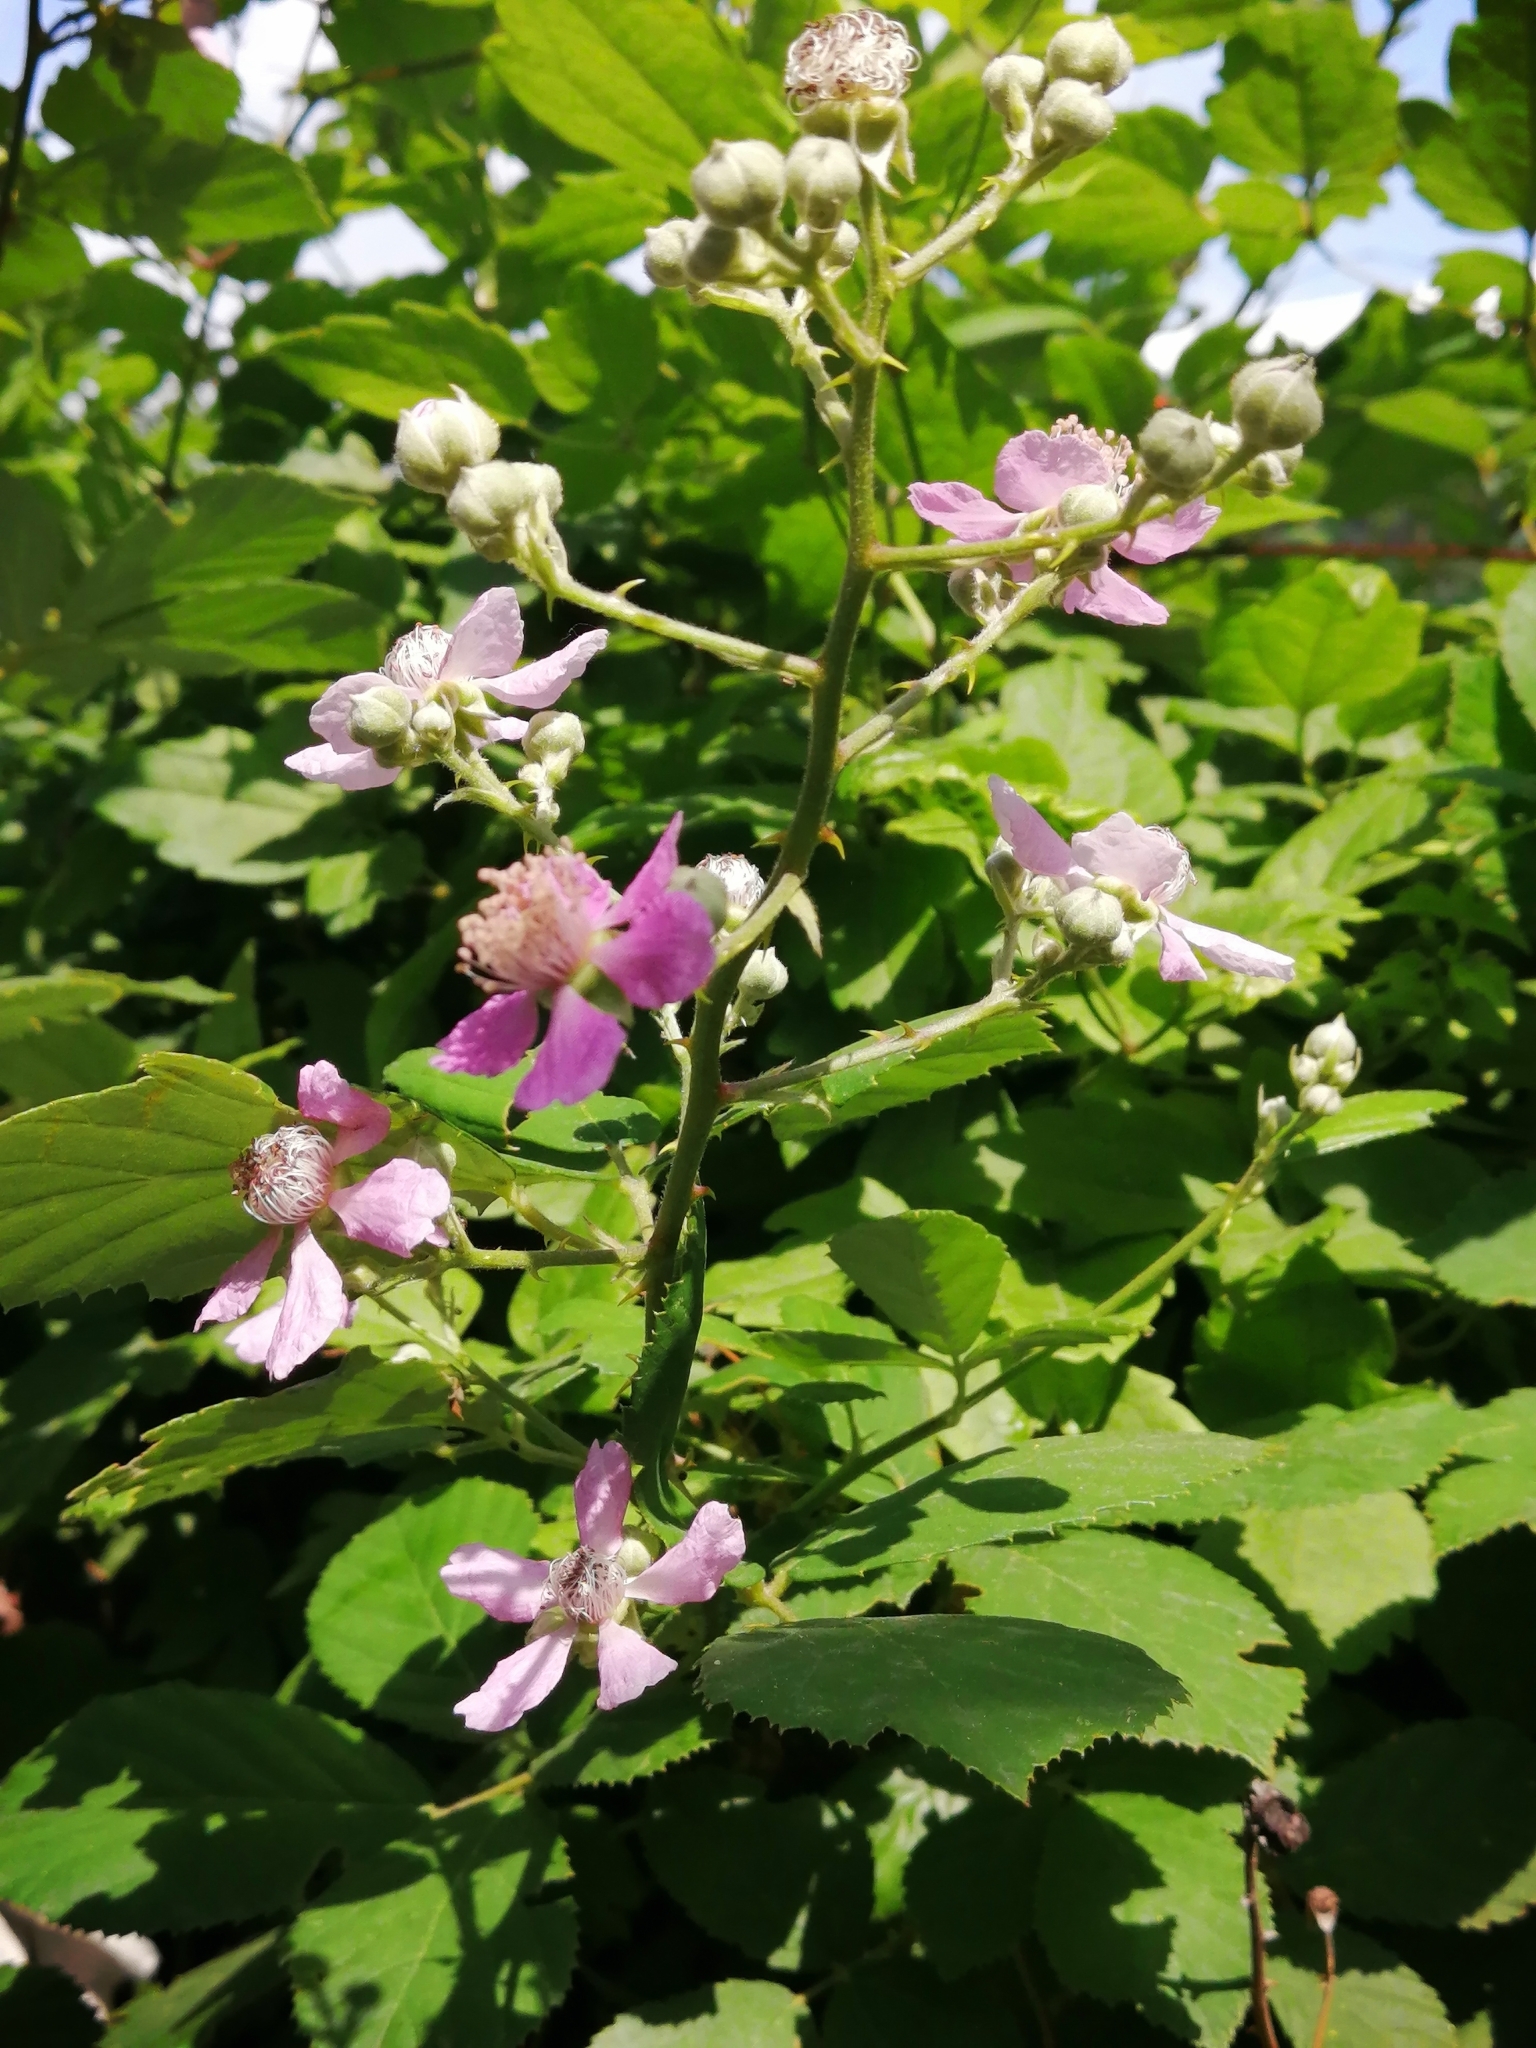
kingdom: Plantae
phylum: Tracheophyta
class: Magnoliopsida
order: Rosales
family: Rosaceae
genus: Rubus
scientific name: Rubus sanctus
